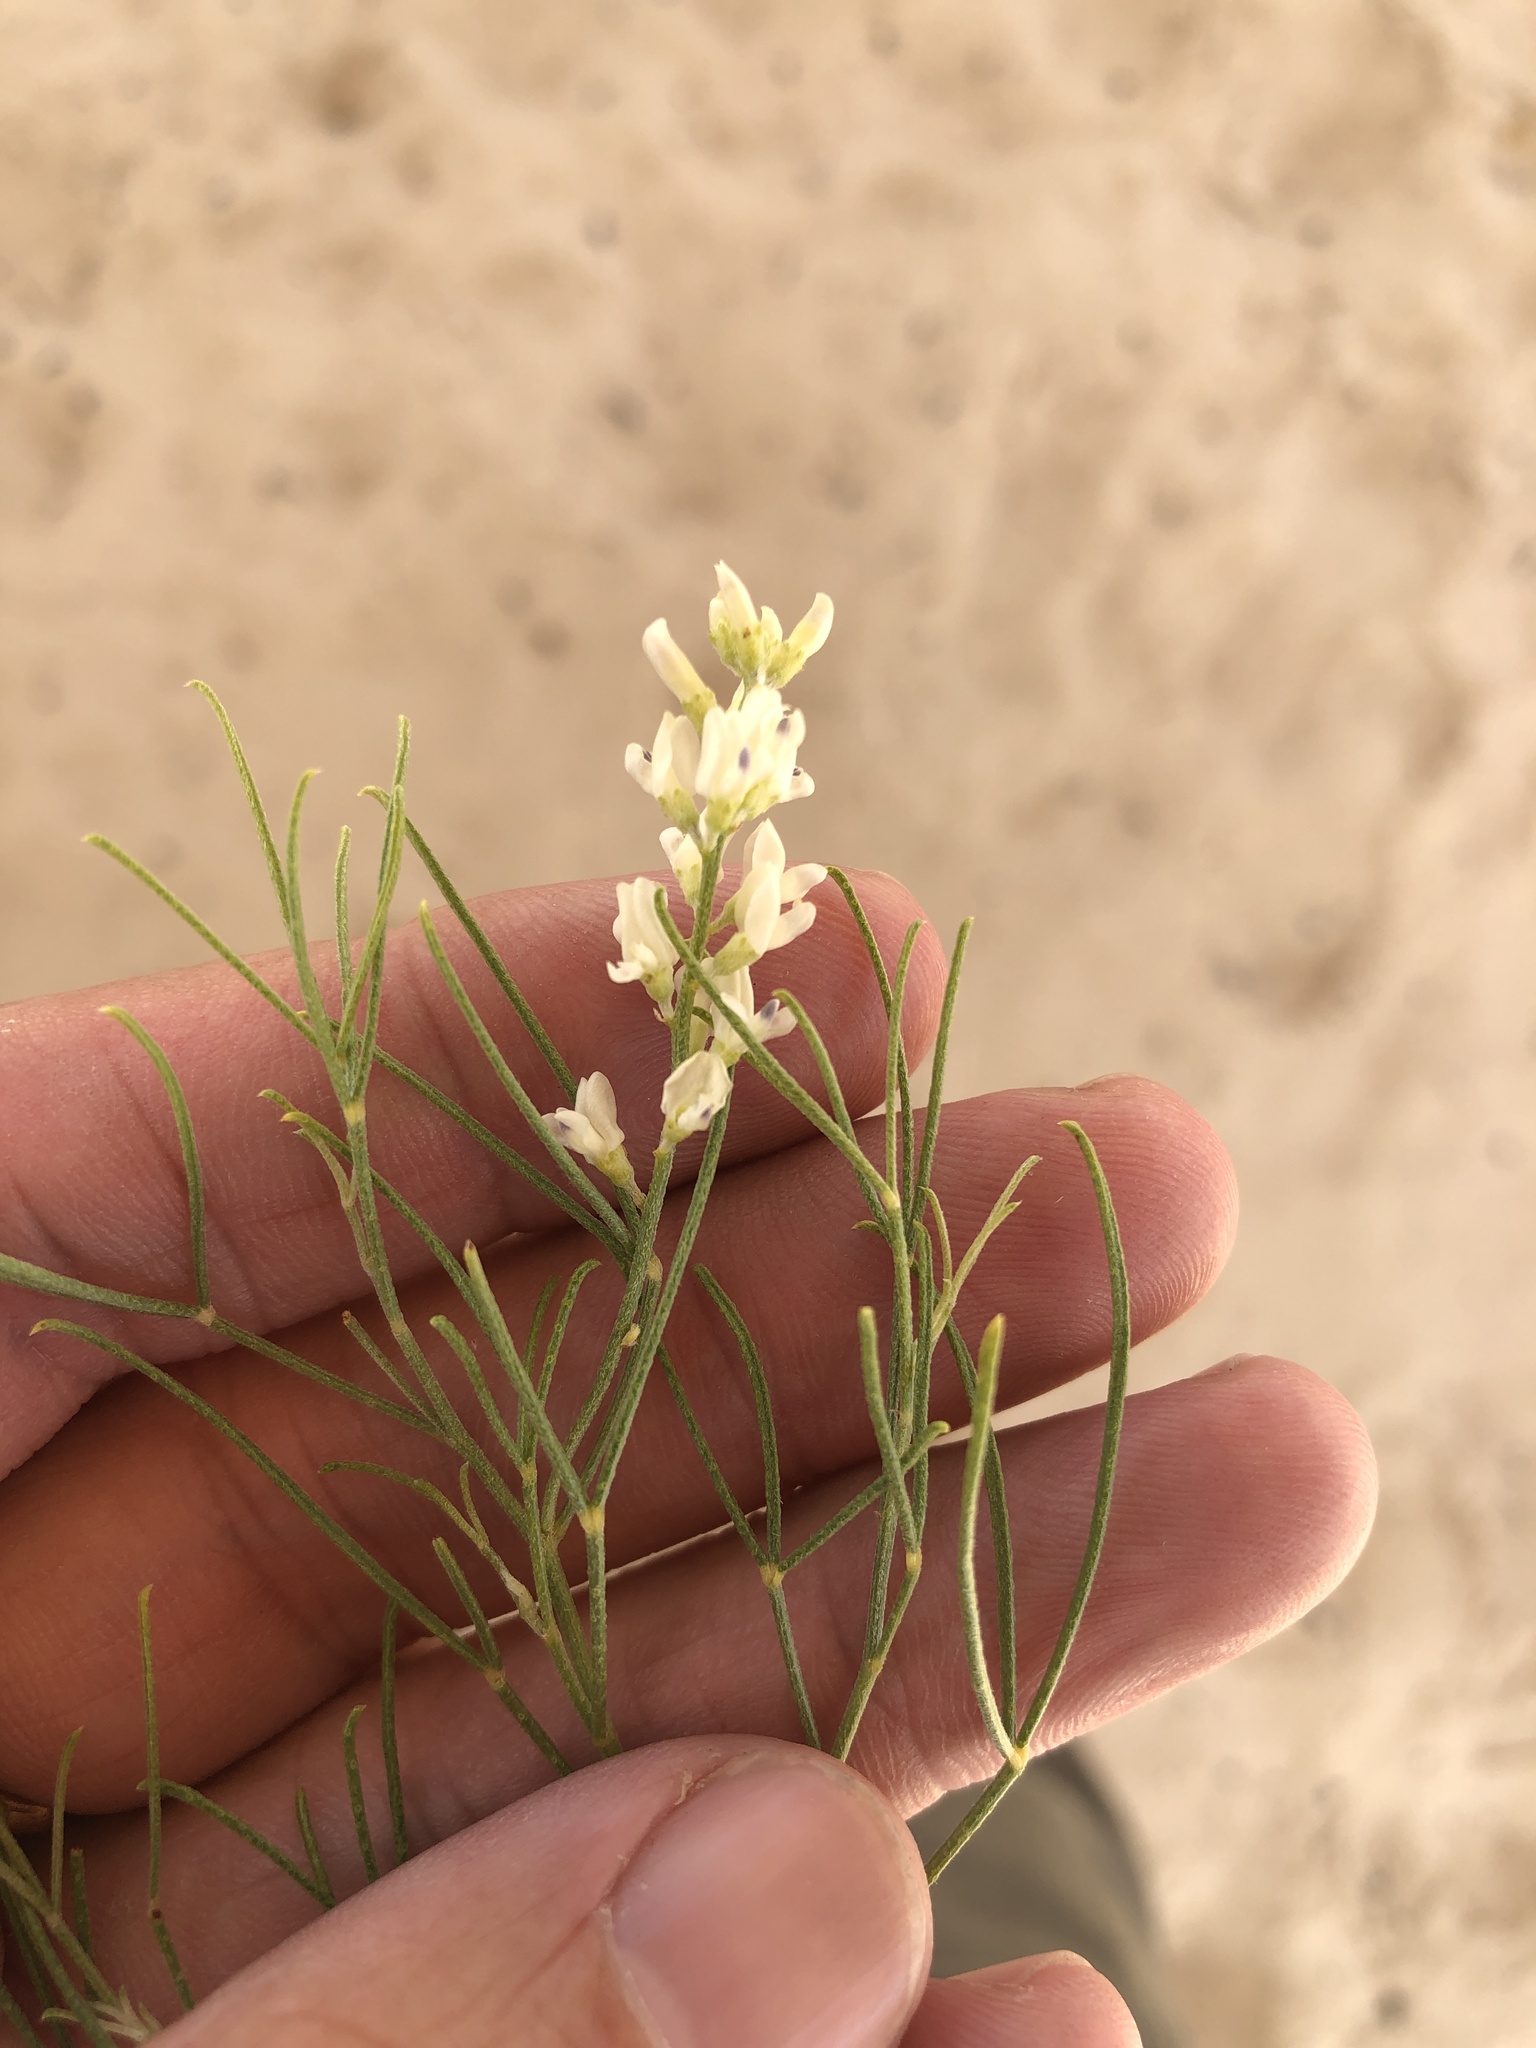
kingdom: Plantae
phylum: Tracheophyta
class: Magnoliopsida
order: Fabales
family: Fabaceae
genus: Ladeania
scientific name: Ladeania lanceolata
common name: Dune scurf-pea
